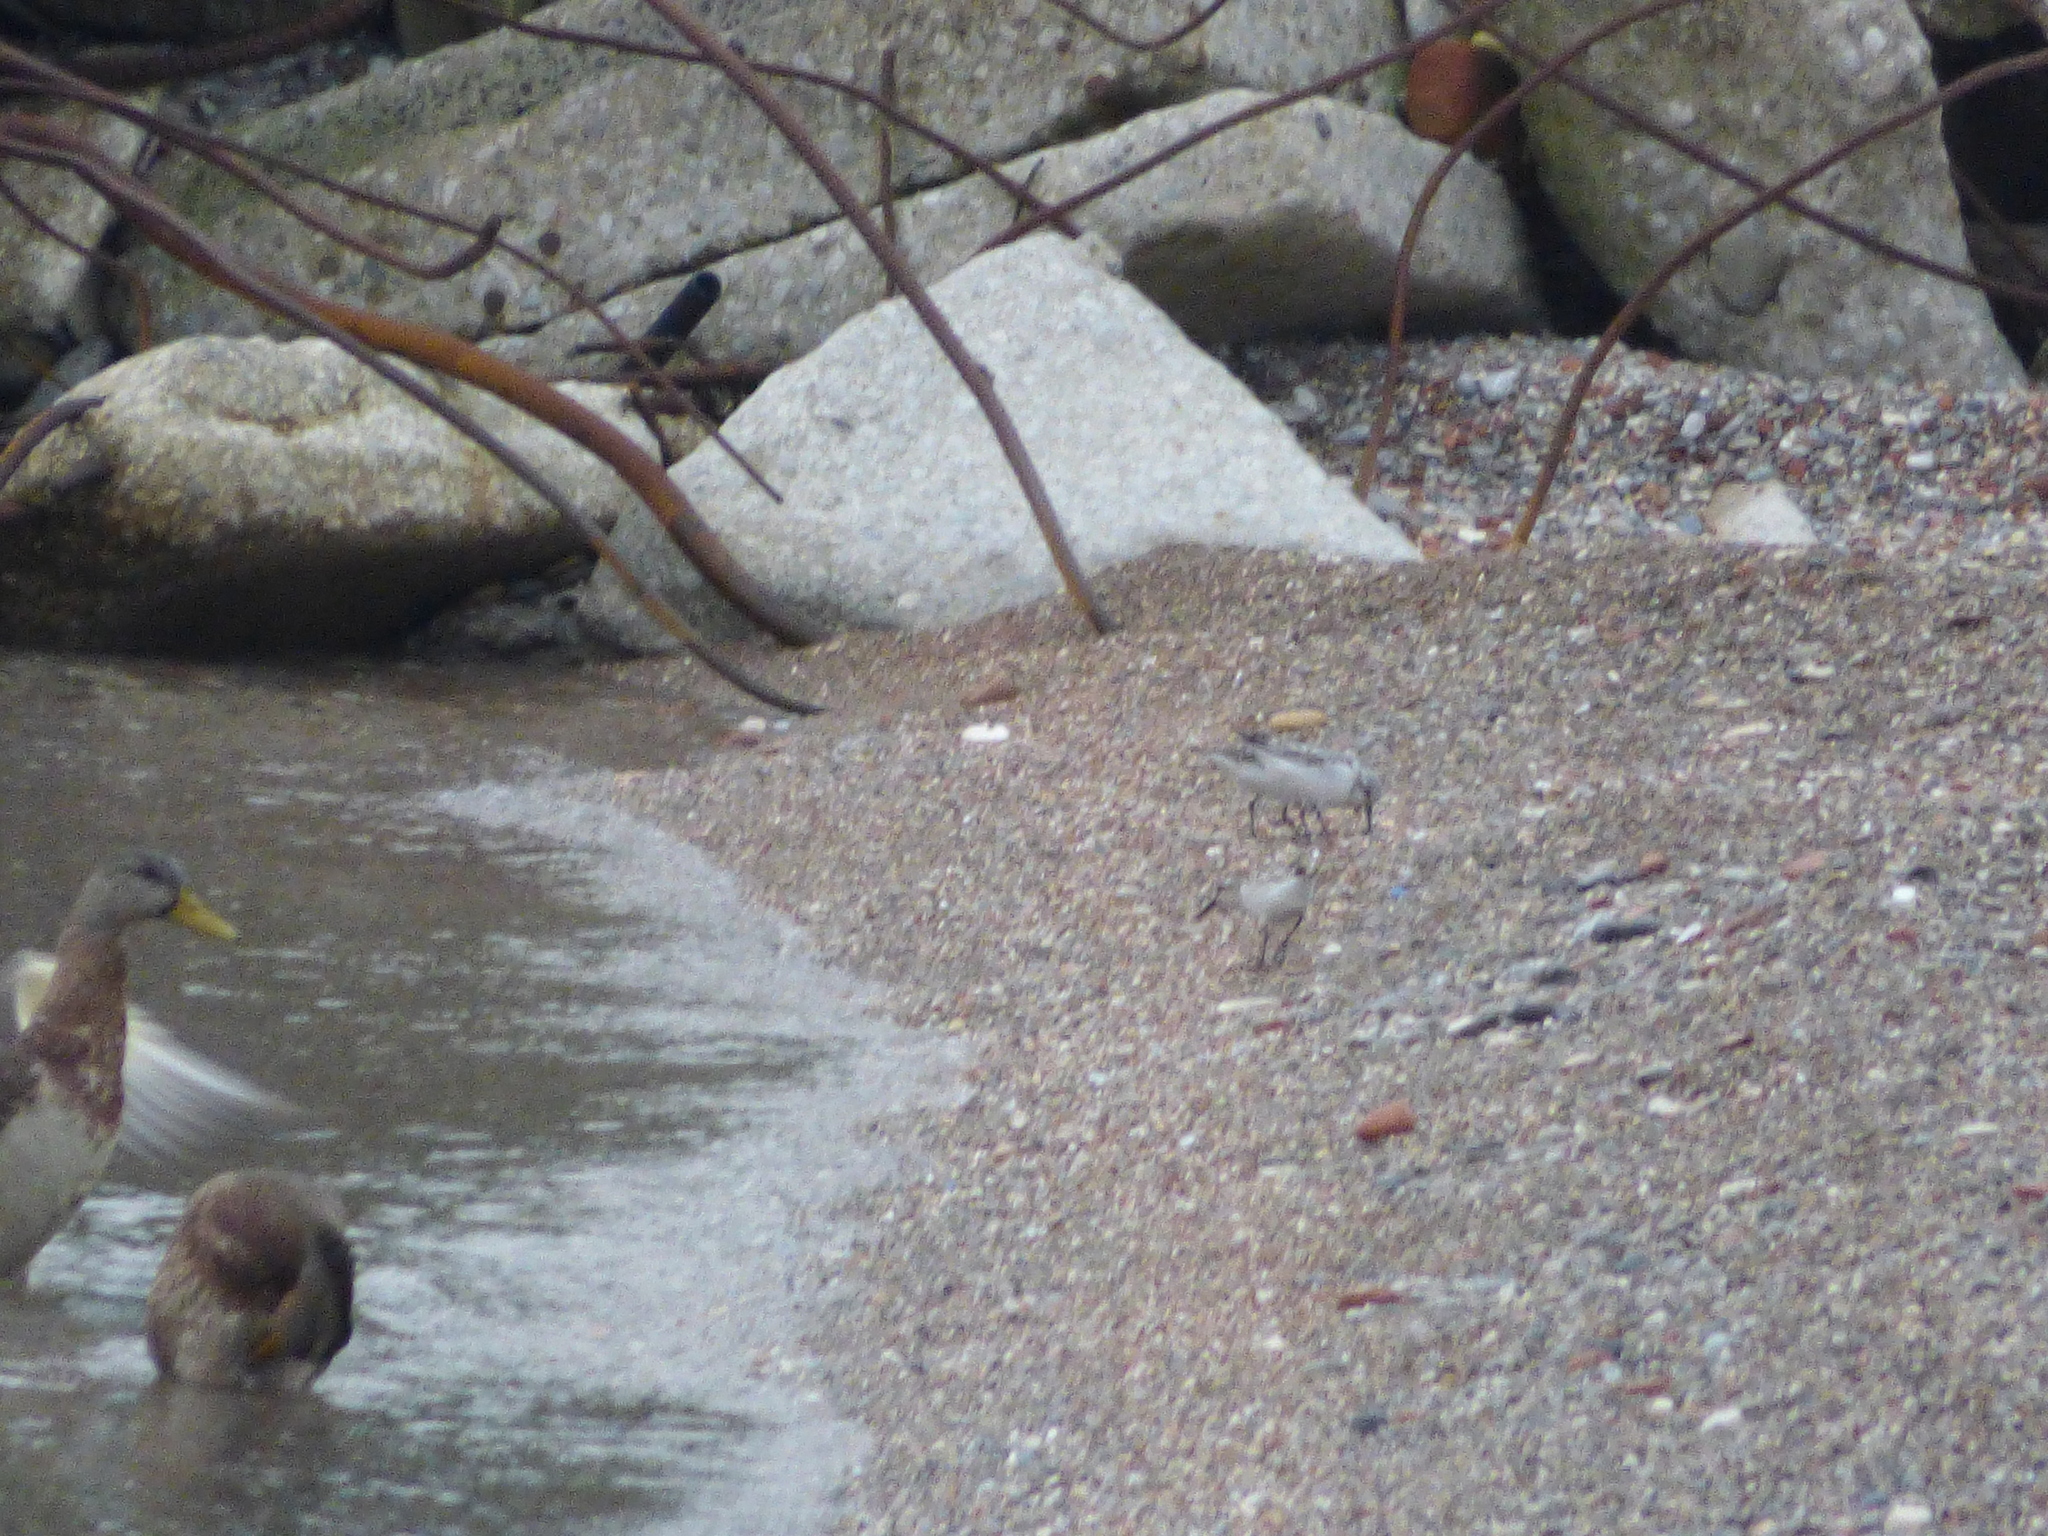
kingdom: Animalia
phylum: Chordata
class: Aves
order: Anseriformes
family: Anatidae
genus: Anas
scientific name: Anas platyrhynchos
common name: Mallard
